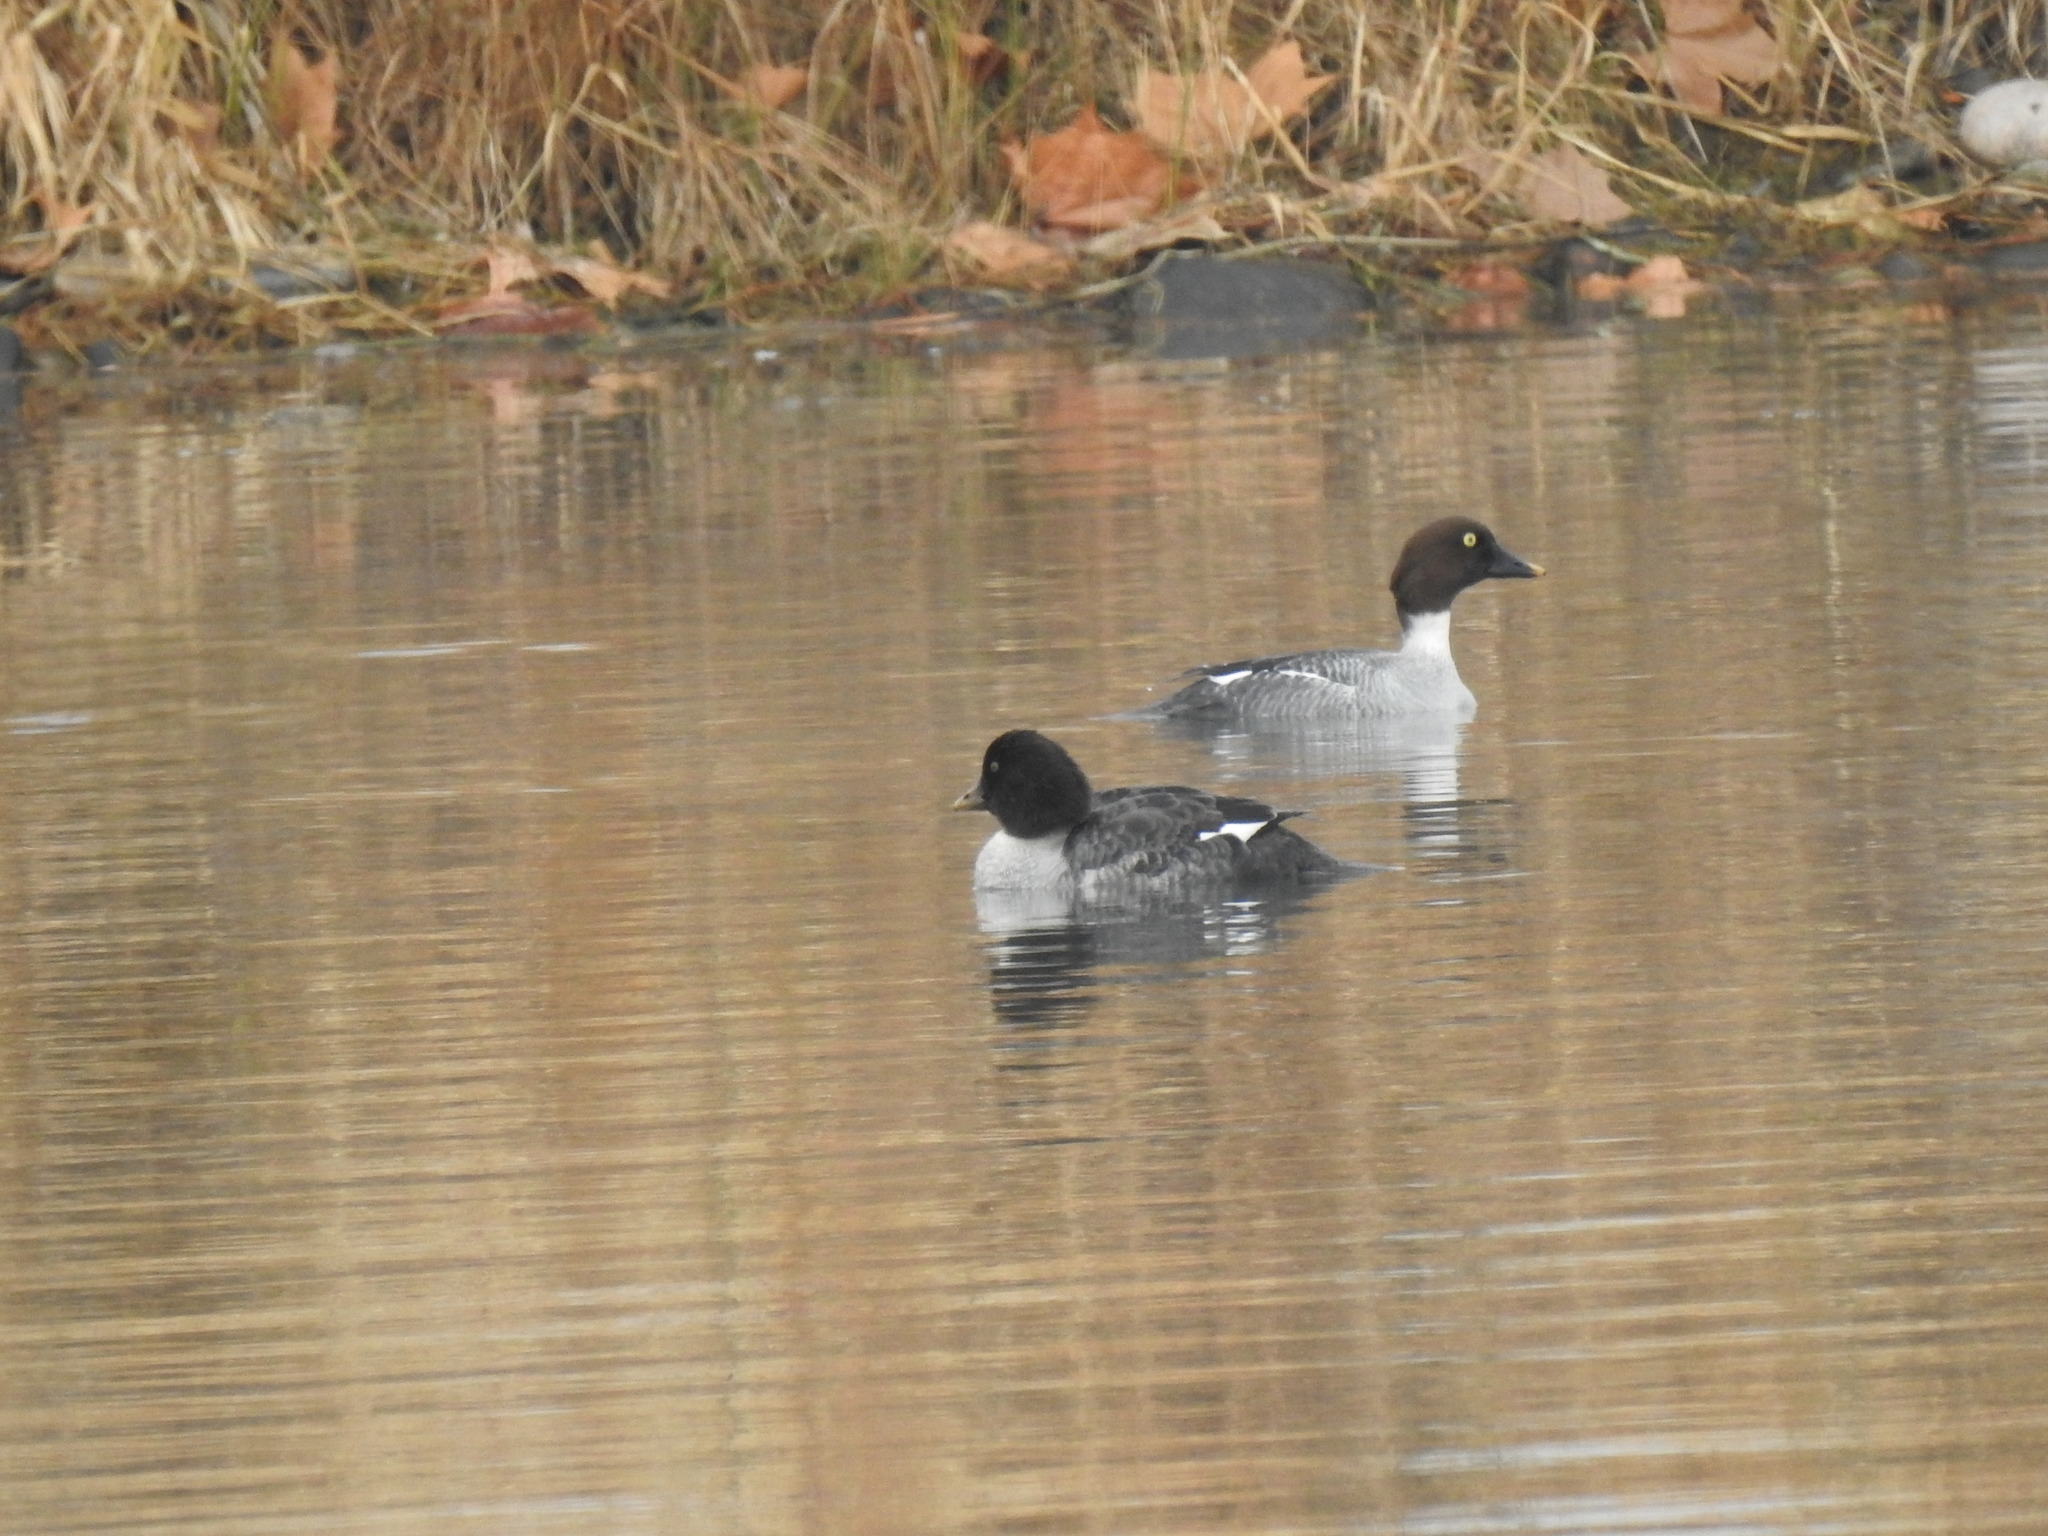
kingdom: Animalia
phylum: Chordata
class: Aves
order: Anseriformes
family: Anatidae
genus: Bucephala
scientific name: Bucephala islandica
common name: Barrow's goldeneye
